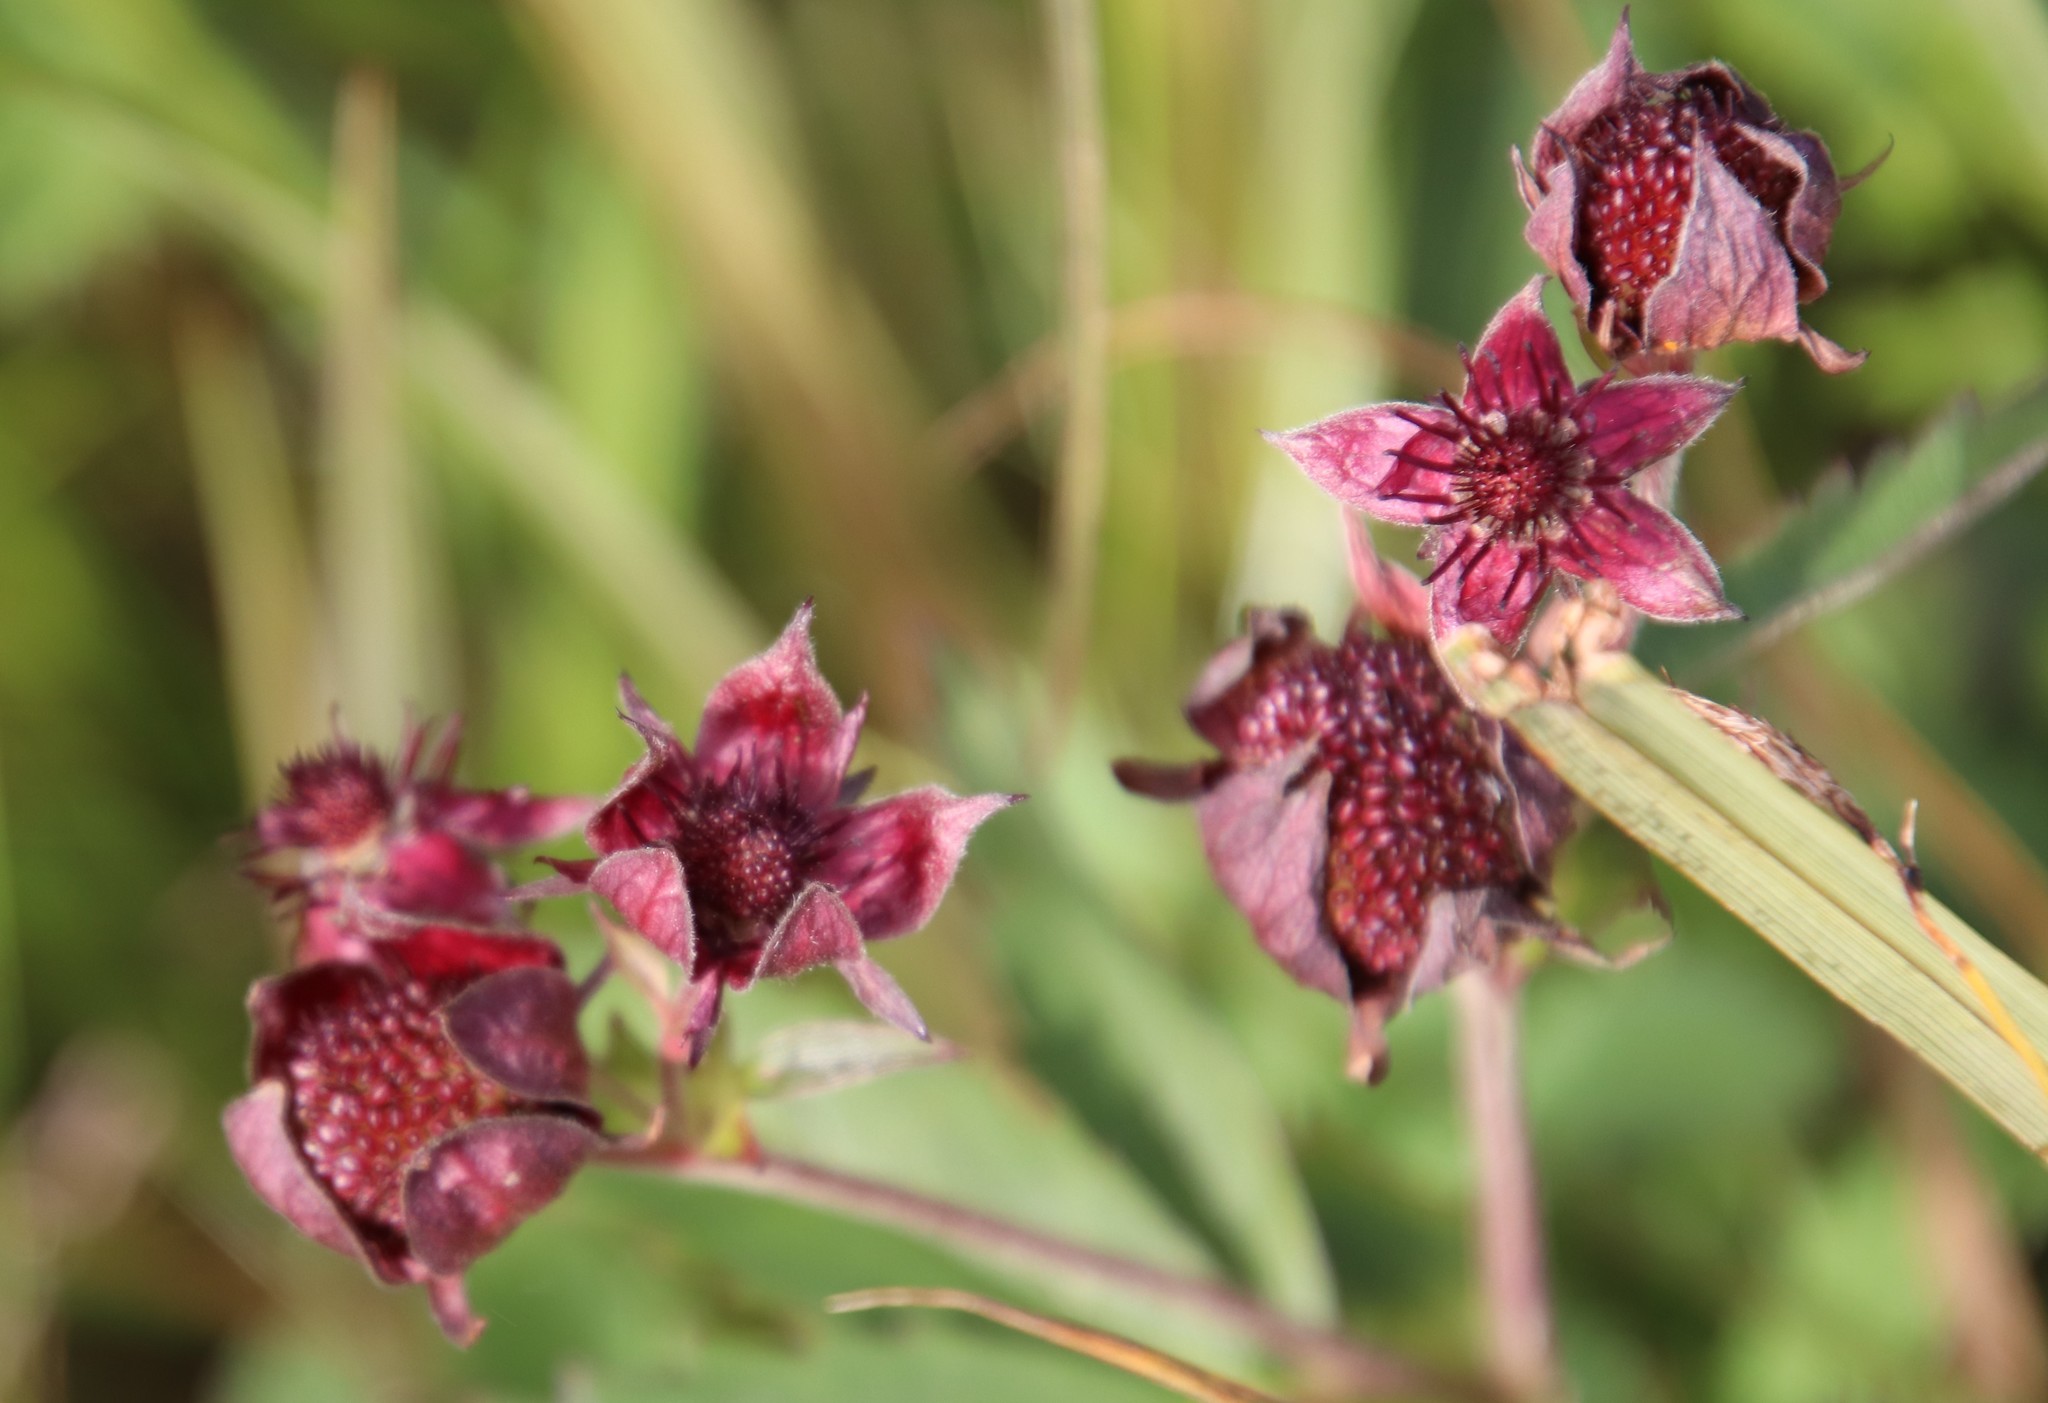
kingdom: Plantae
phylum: Tracheophyta
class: Magnoliopsida
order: Rosales
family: Rosaceae
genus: Comarum
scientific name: Comarum palustre
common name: Marsh cinquefoil
